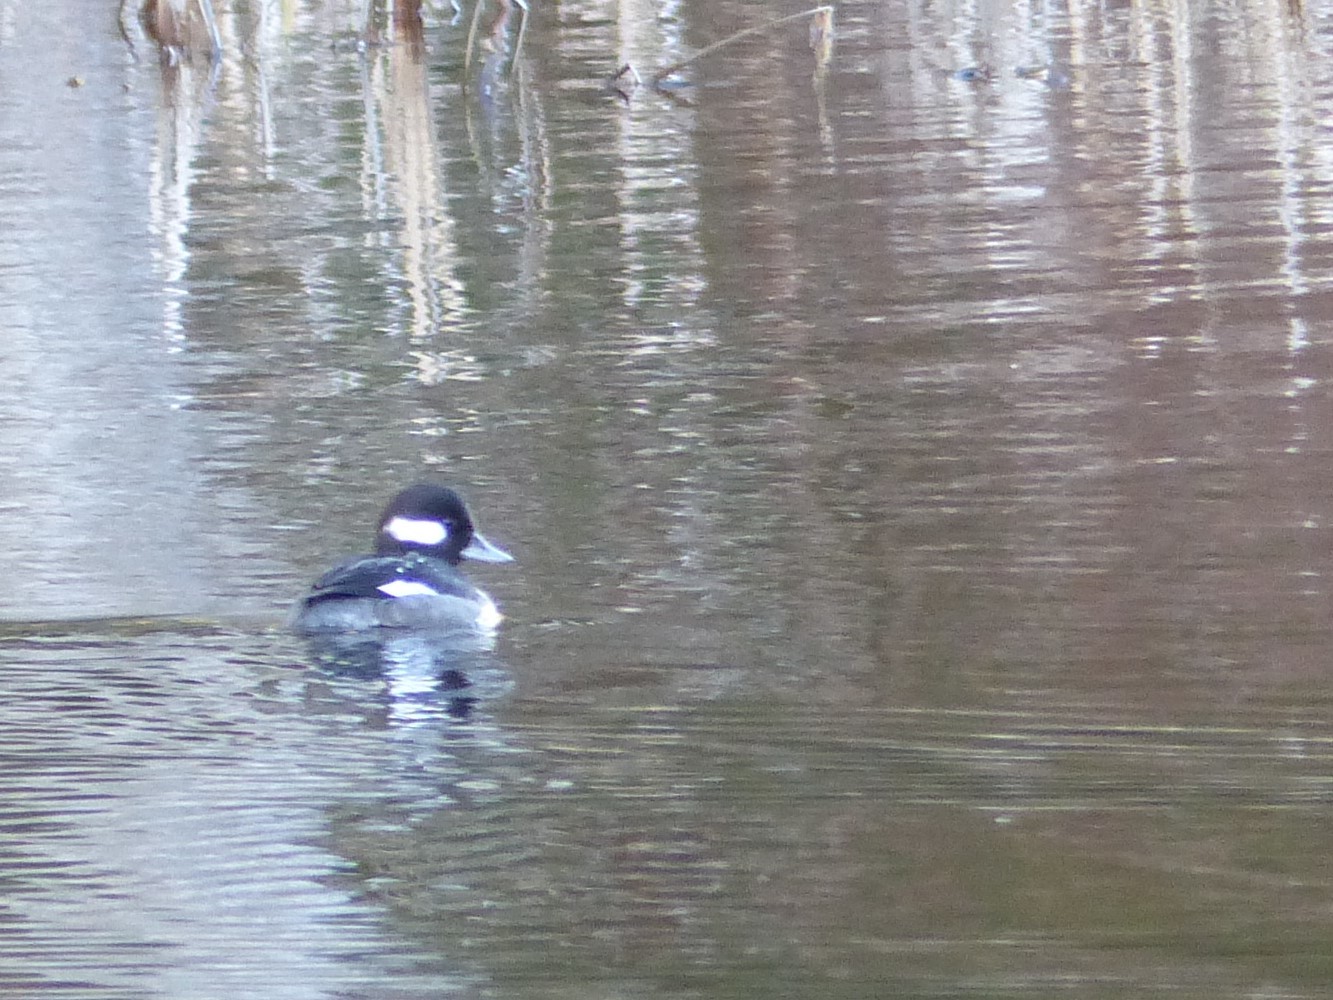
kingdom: Animalia
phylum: Chordata
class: Aves
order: Anseriformes
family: Anatidae
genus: Bucephala
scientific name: Bucephala albeola
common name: Bufflehead
